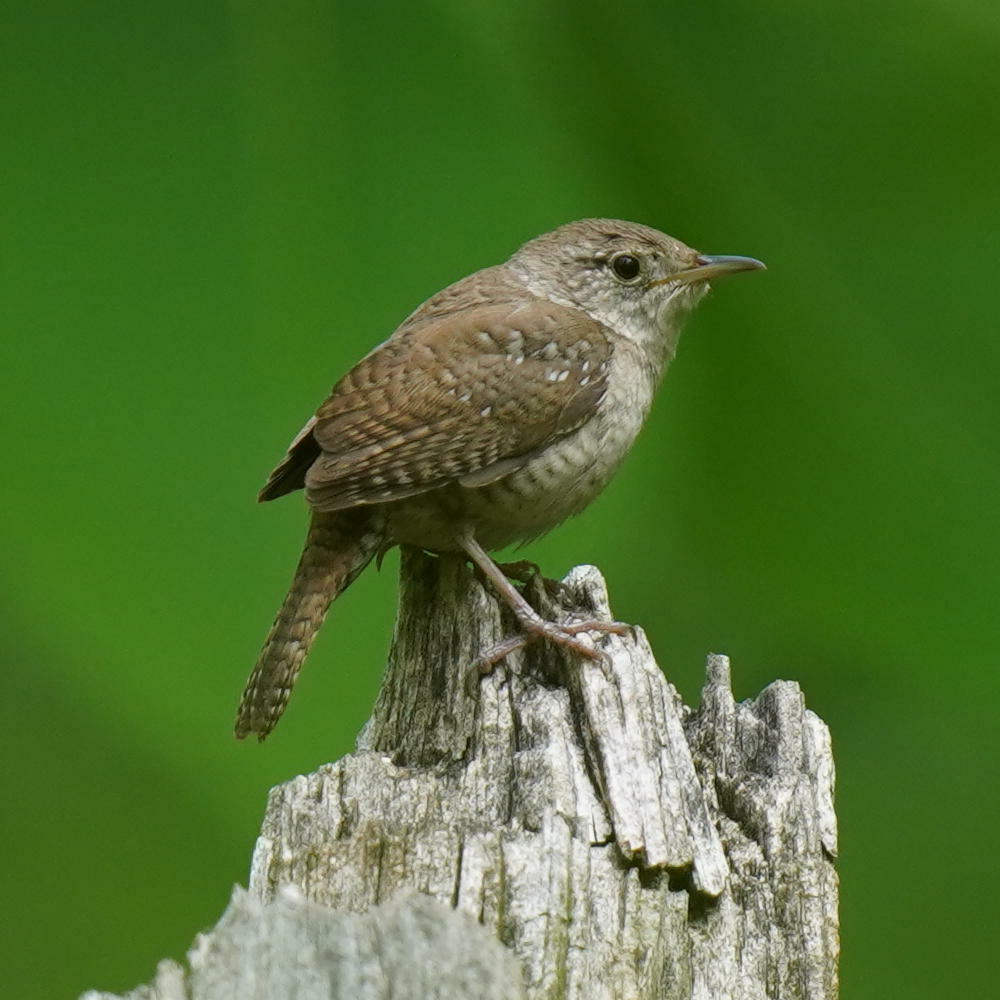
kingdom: Animalia
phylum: Chordata
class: Aves
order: Passeriformes
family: Troglodytidae
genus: Troglodytes
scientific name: Troglodytes aedon
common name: House wren
